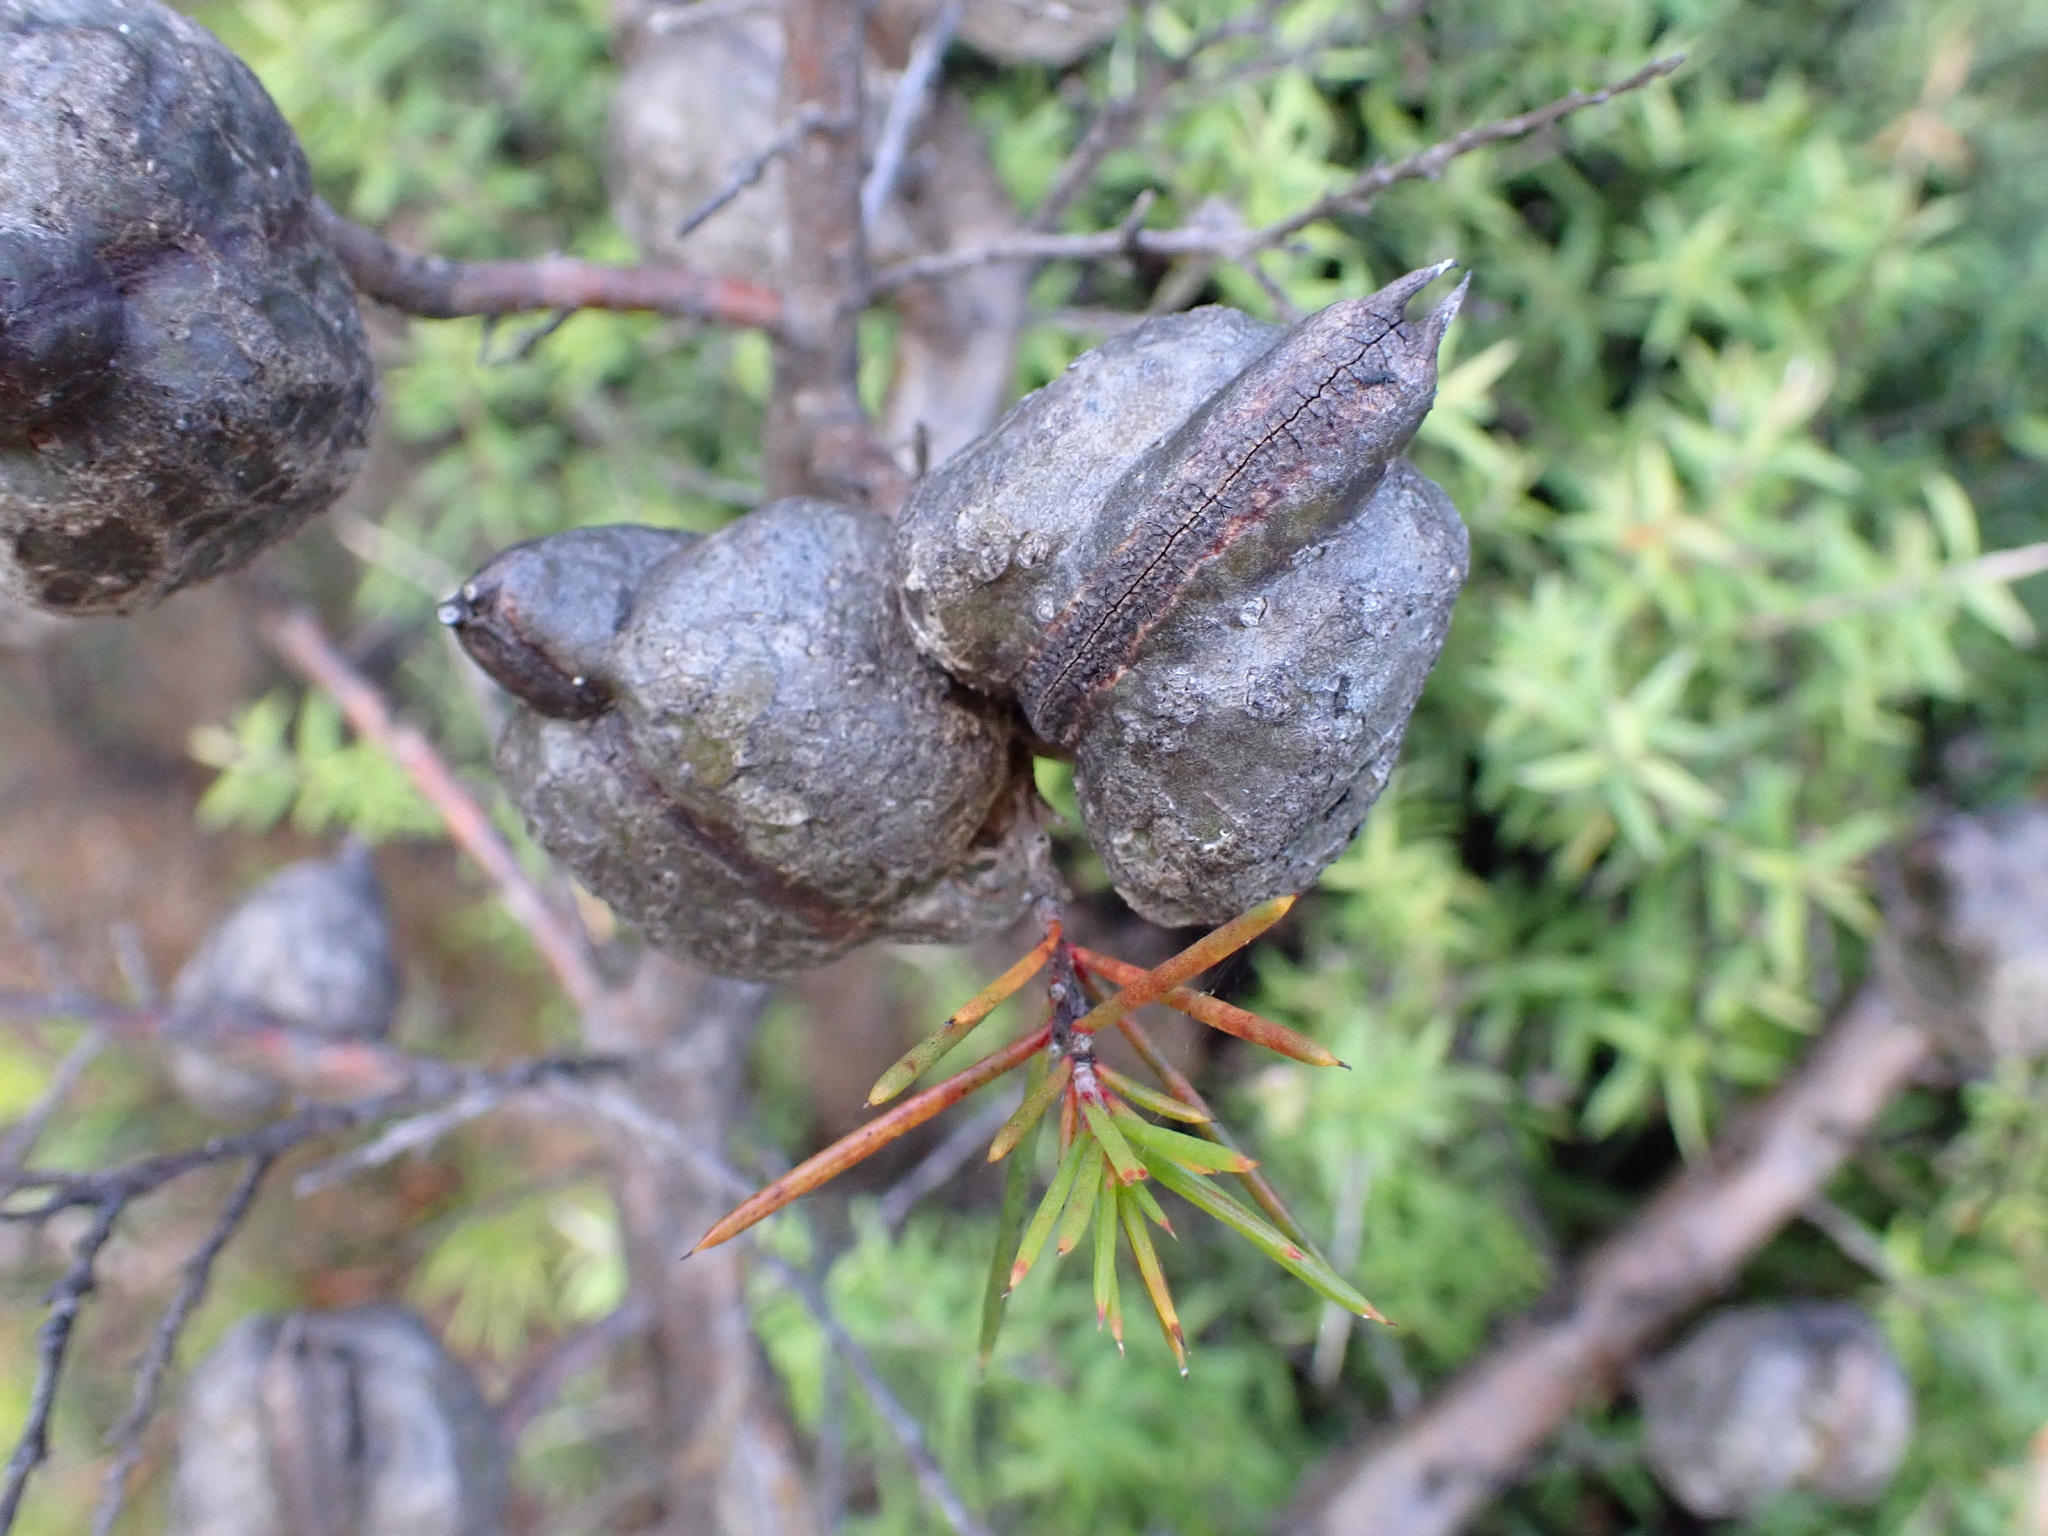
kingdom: Plantae
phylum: Tracheophyta
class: Magnoliopsida
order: Proteales
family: Proteaceae
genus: Hakea
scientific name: Hakea sericea
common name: Needle bush
